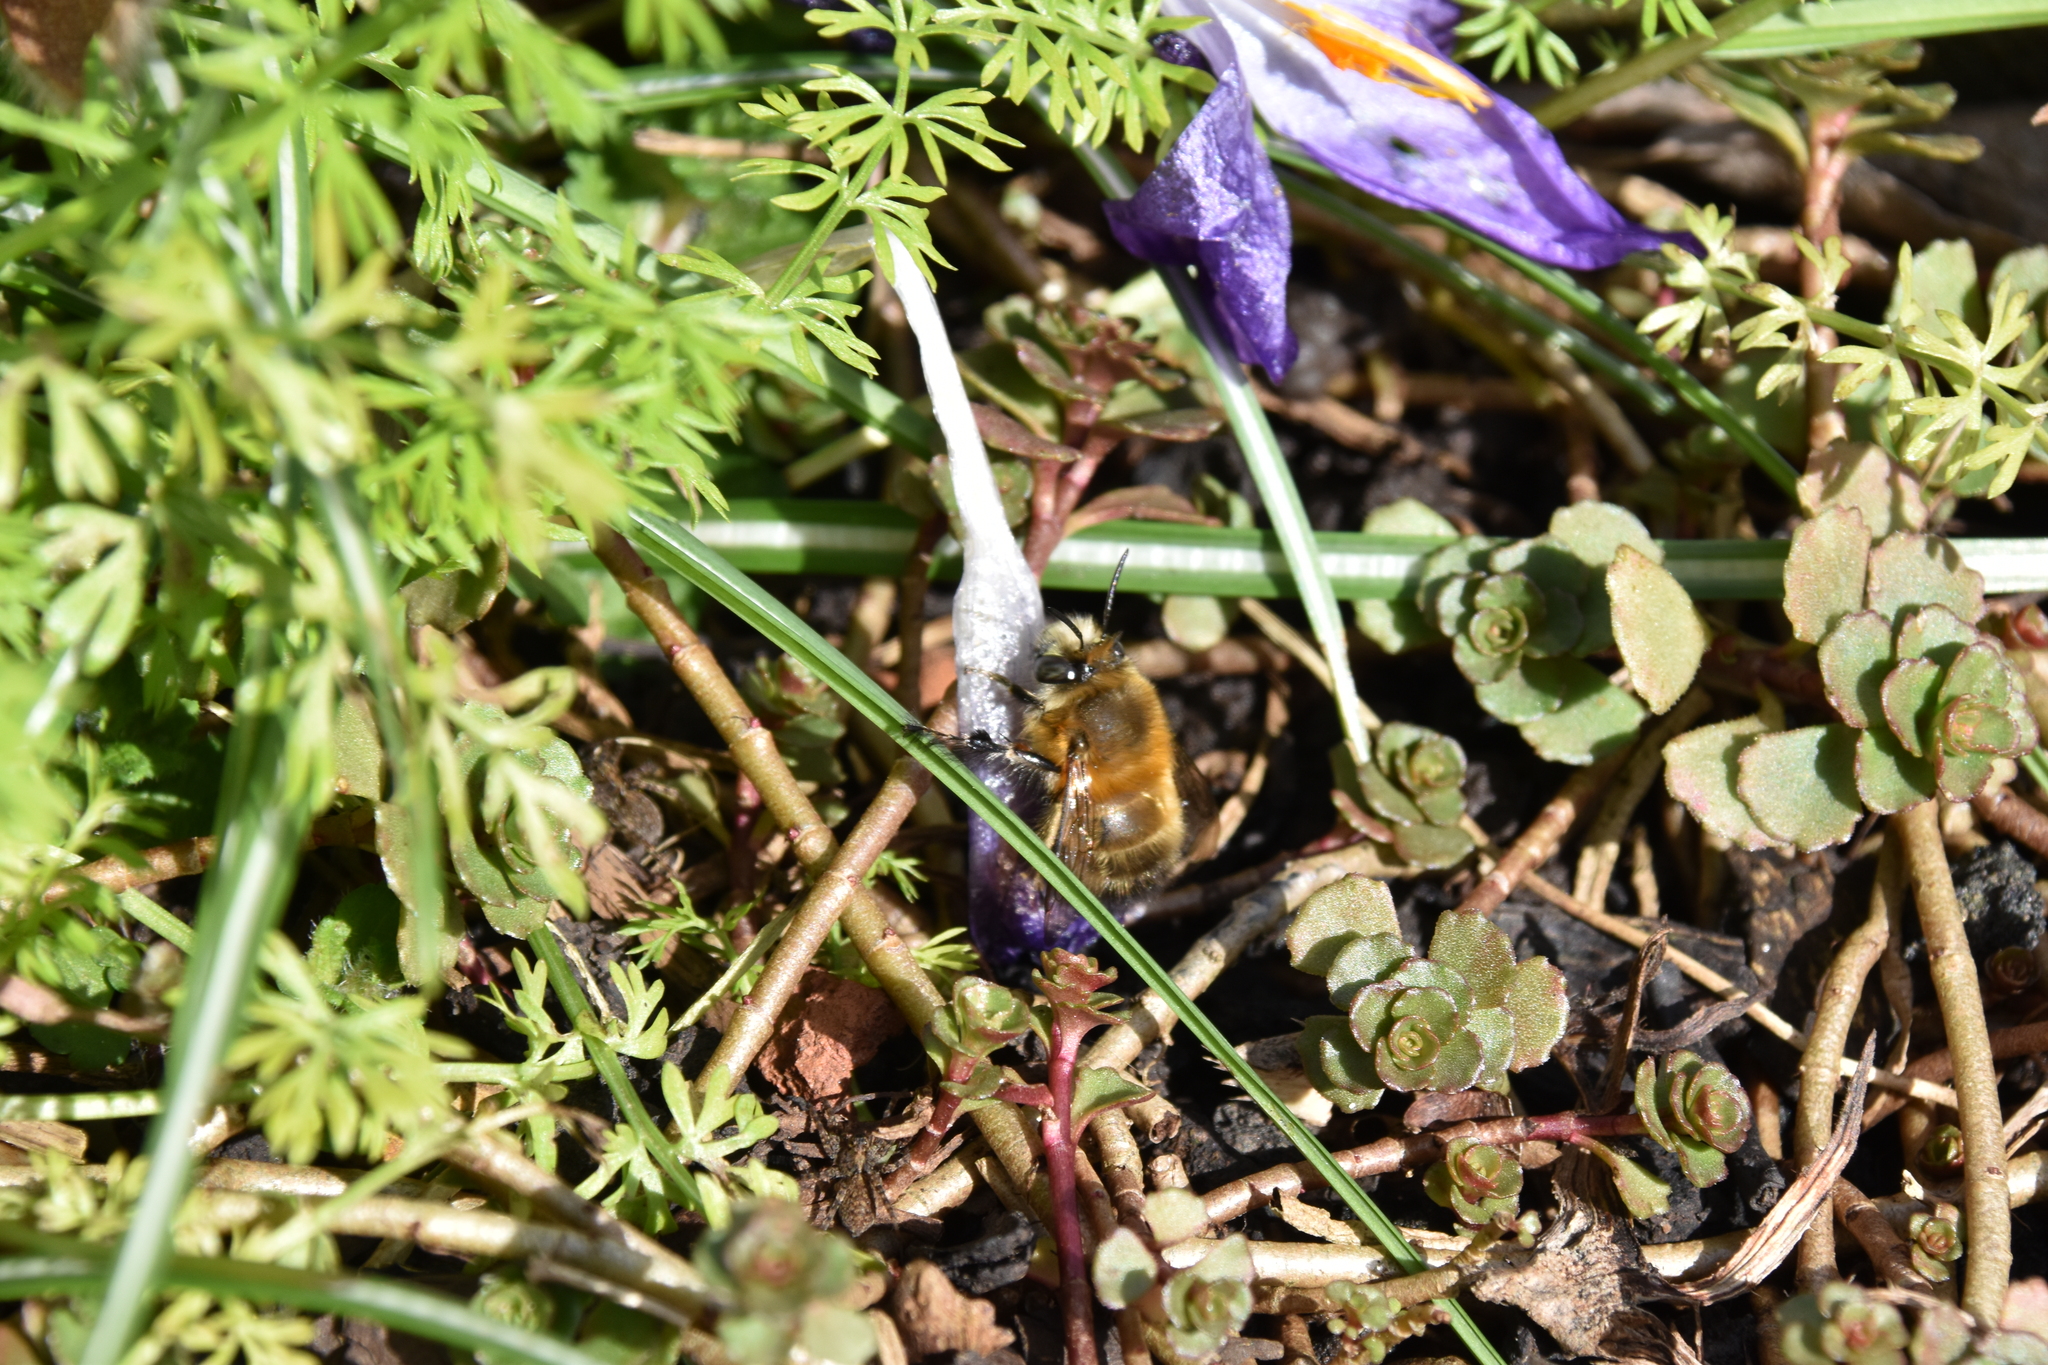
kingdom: Animalia
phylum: Arthropoda
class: Insecta
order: Hymenoptera
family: Apidae
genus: Anthophora
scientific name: Anthophora plumipes
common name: Hairy-footed flower bee
